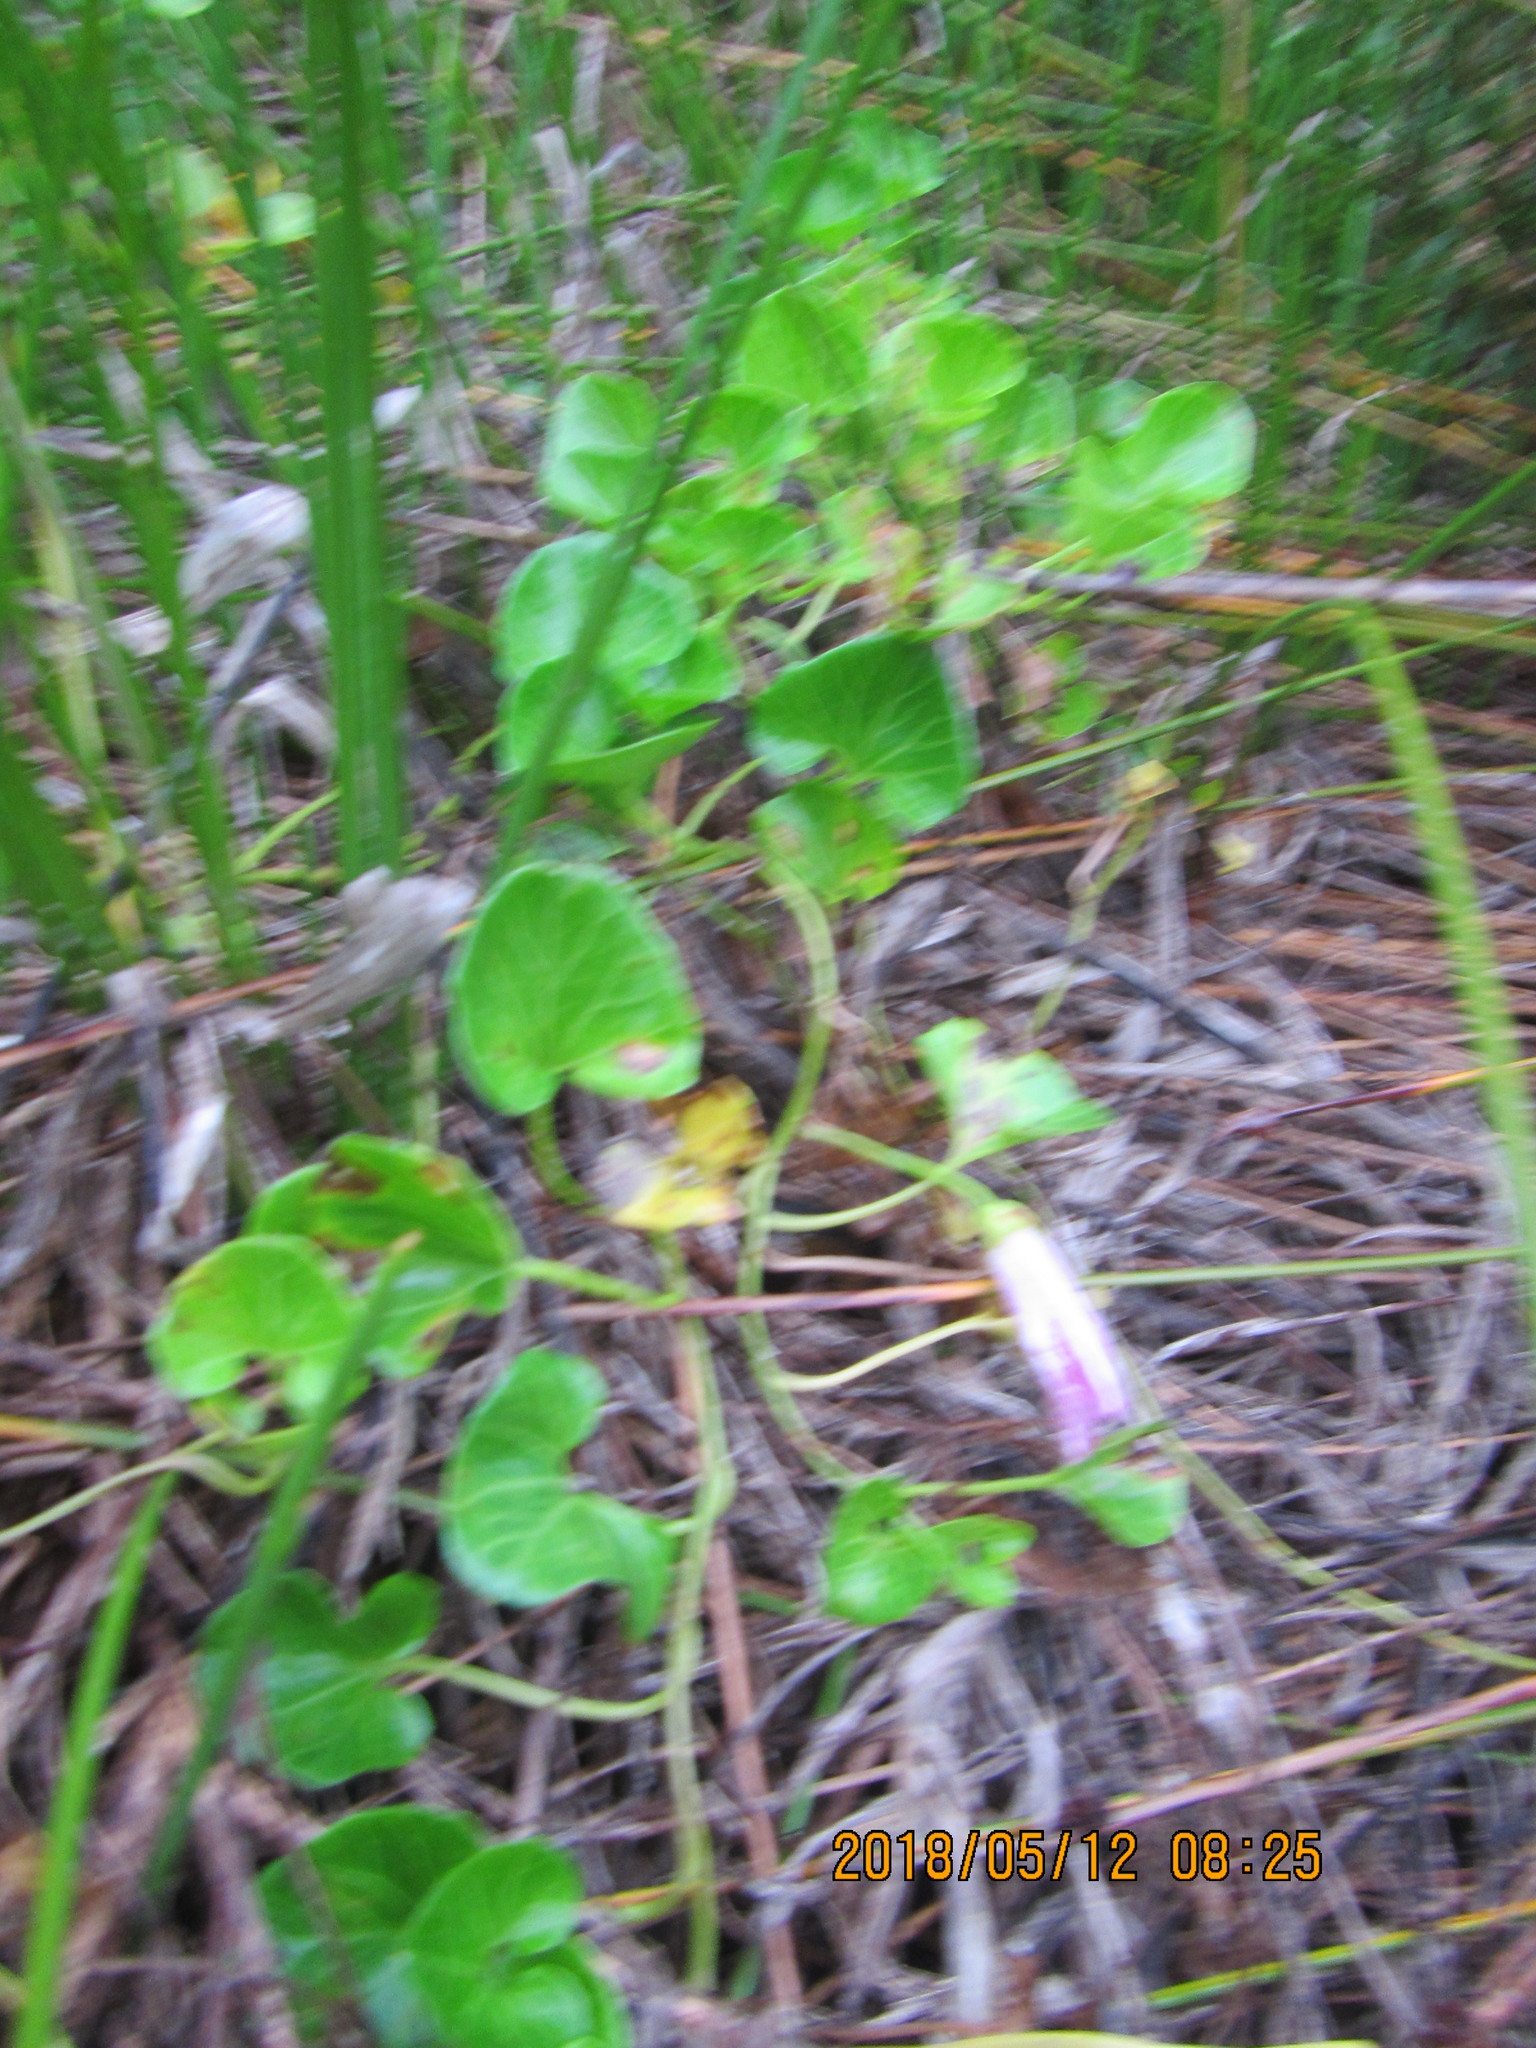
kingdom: Plantae
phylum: Tracheophyta
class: Magnoliopsida
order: Solanales
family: Convolvulaceae
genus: Calystegia
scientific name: Calystegia soldanella
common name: Sea bindweed
